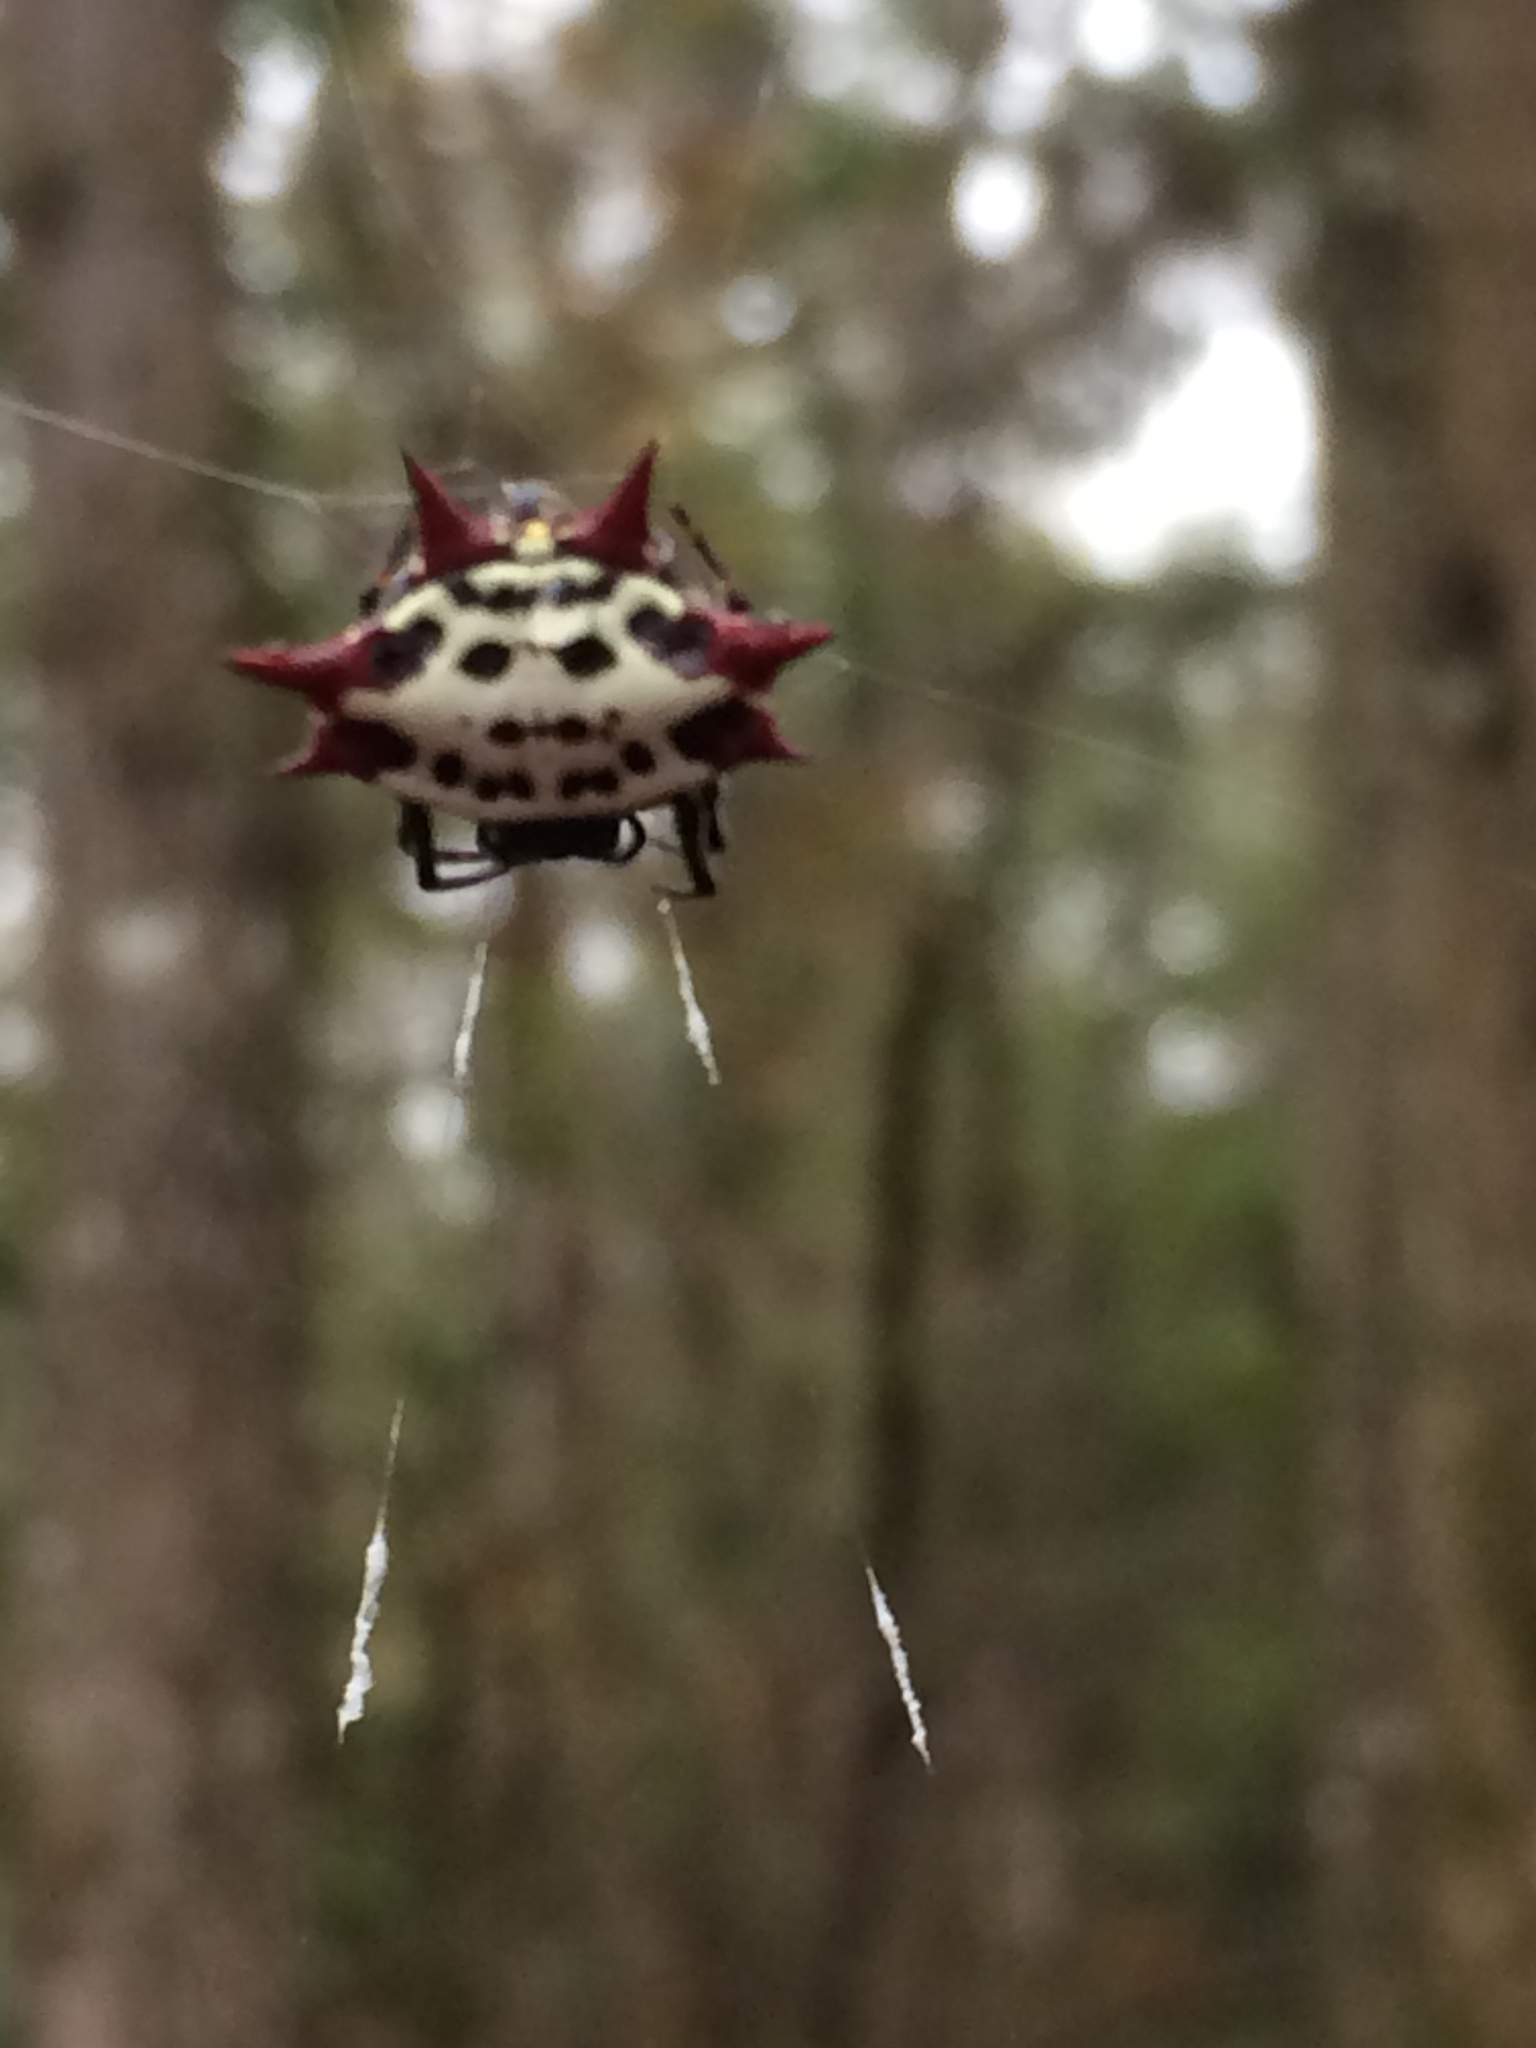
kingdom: Animalia
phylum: Arthropoda
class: Arachnida
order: Araneae
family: Araneidae
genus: Gasteracantha
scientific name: Gasteracantha cancriformis
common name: Orb weavers
